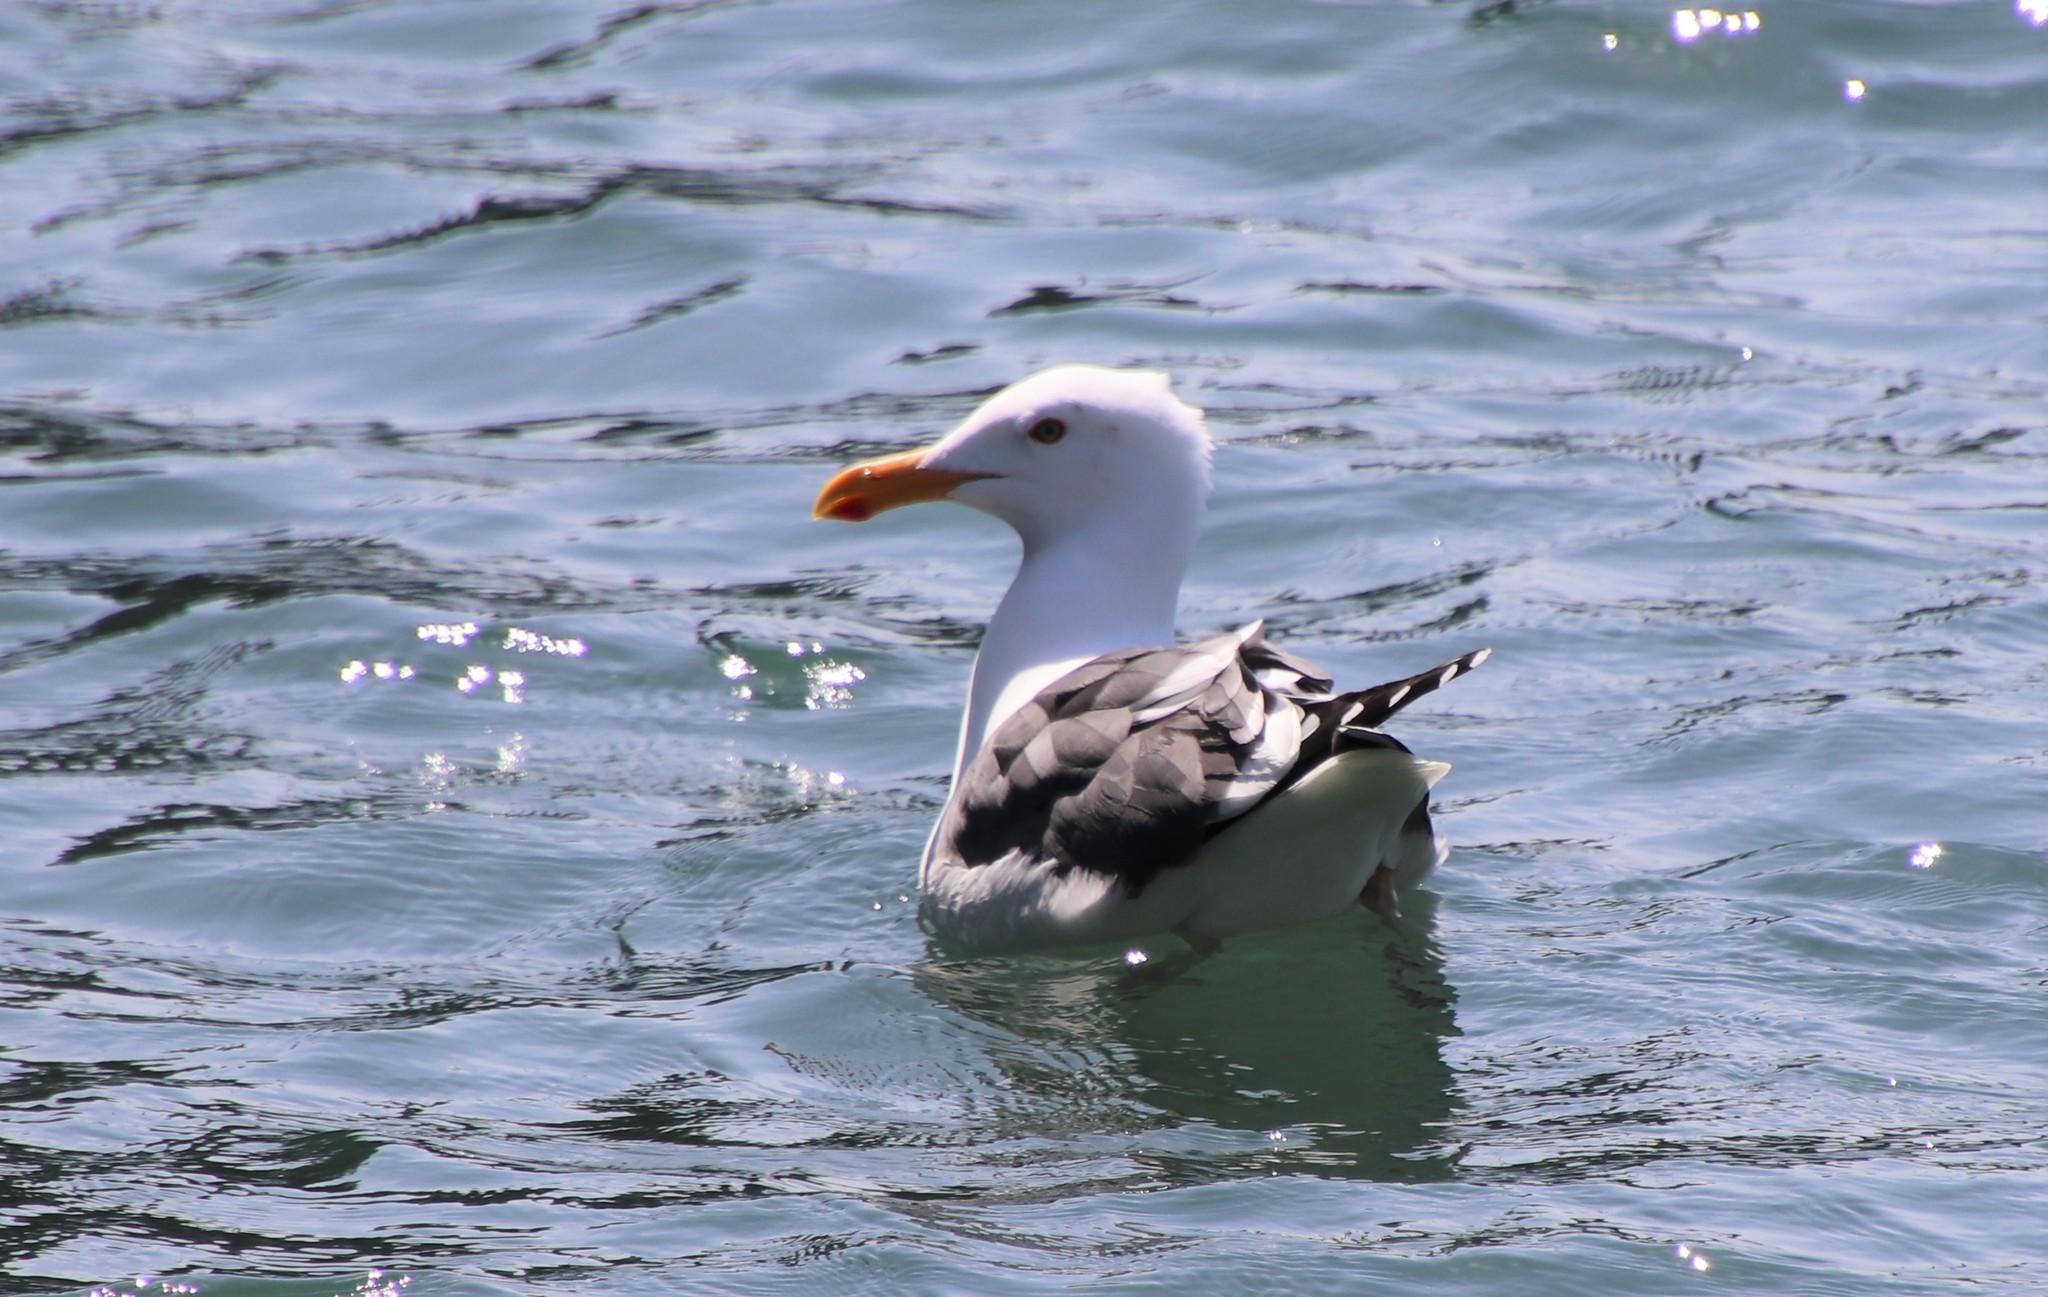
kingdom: Animalia
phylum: Chordata
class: Aves
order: Charadriiformes
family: Laridae
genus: Larus
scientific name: Larus occidentalis
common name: Western gull
